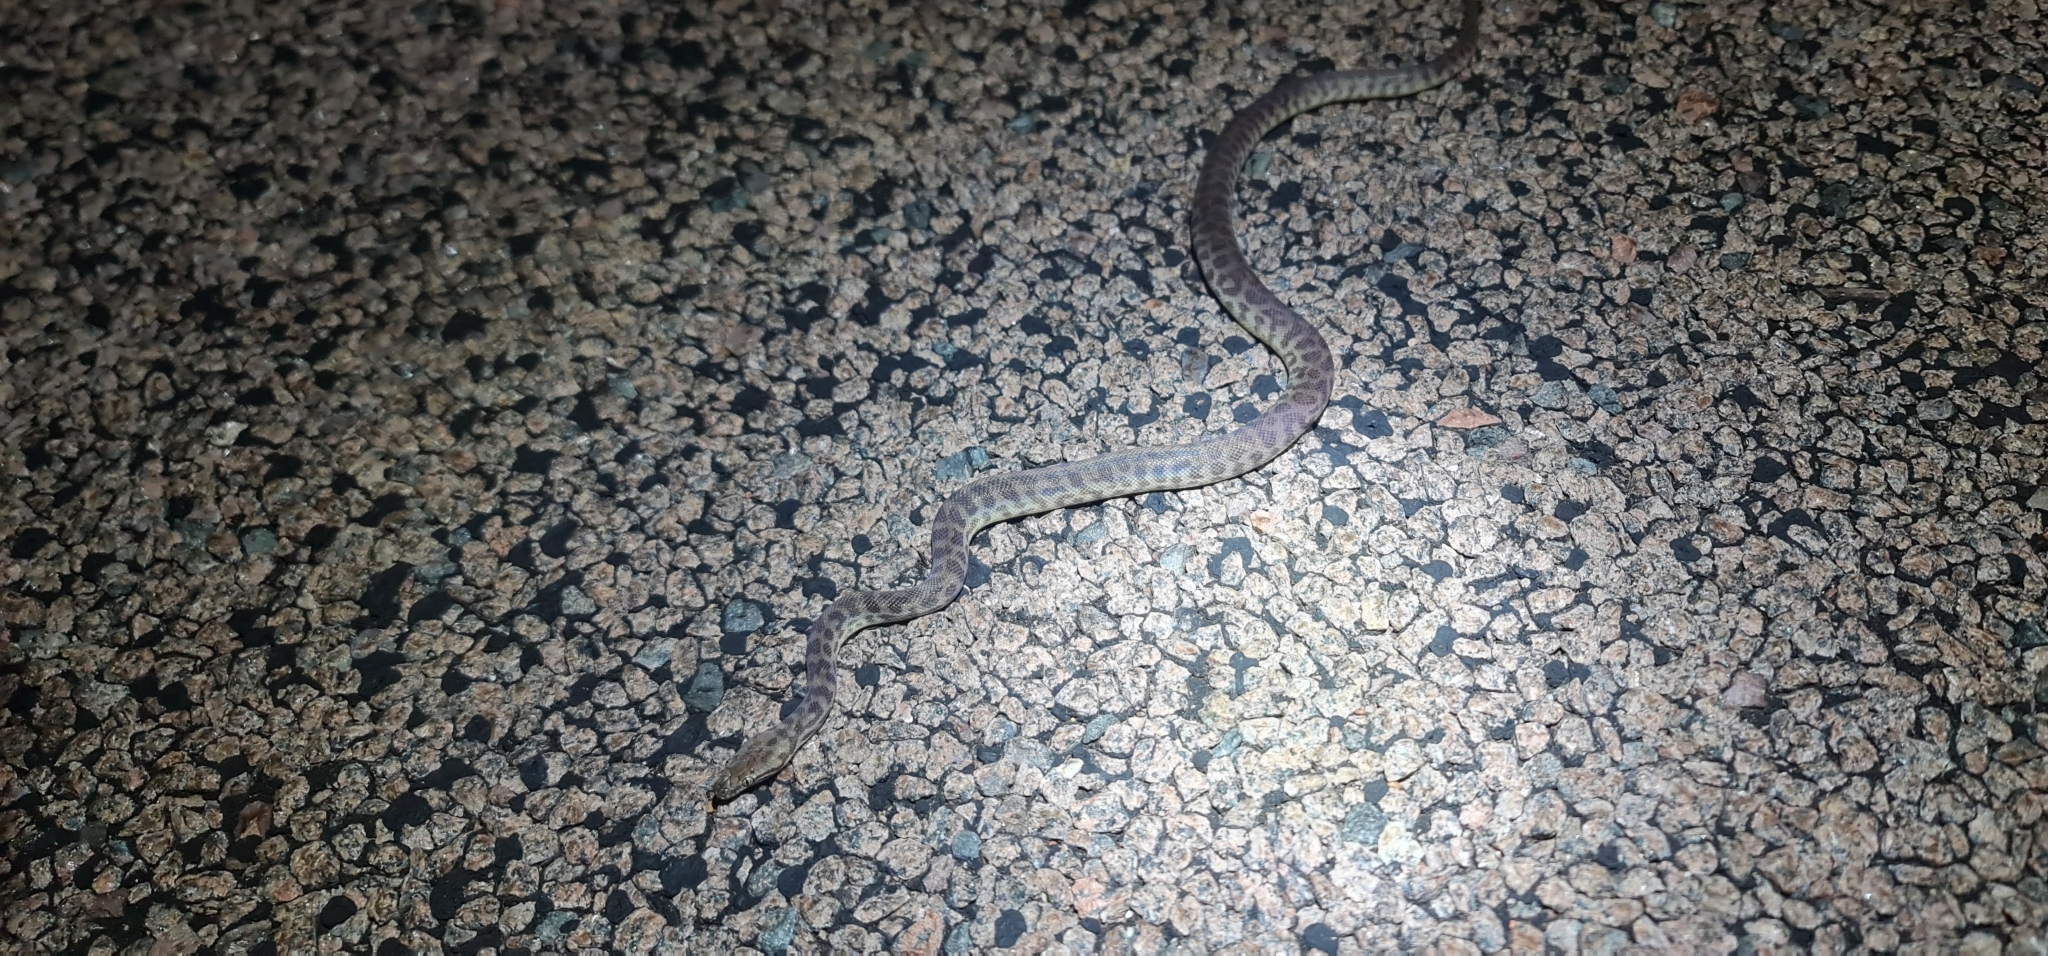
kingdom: Animalia
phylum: Chordata
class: Squamata
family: Pythonidae
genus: Antaresia
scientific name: Antaresia childreni
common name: Children's python
